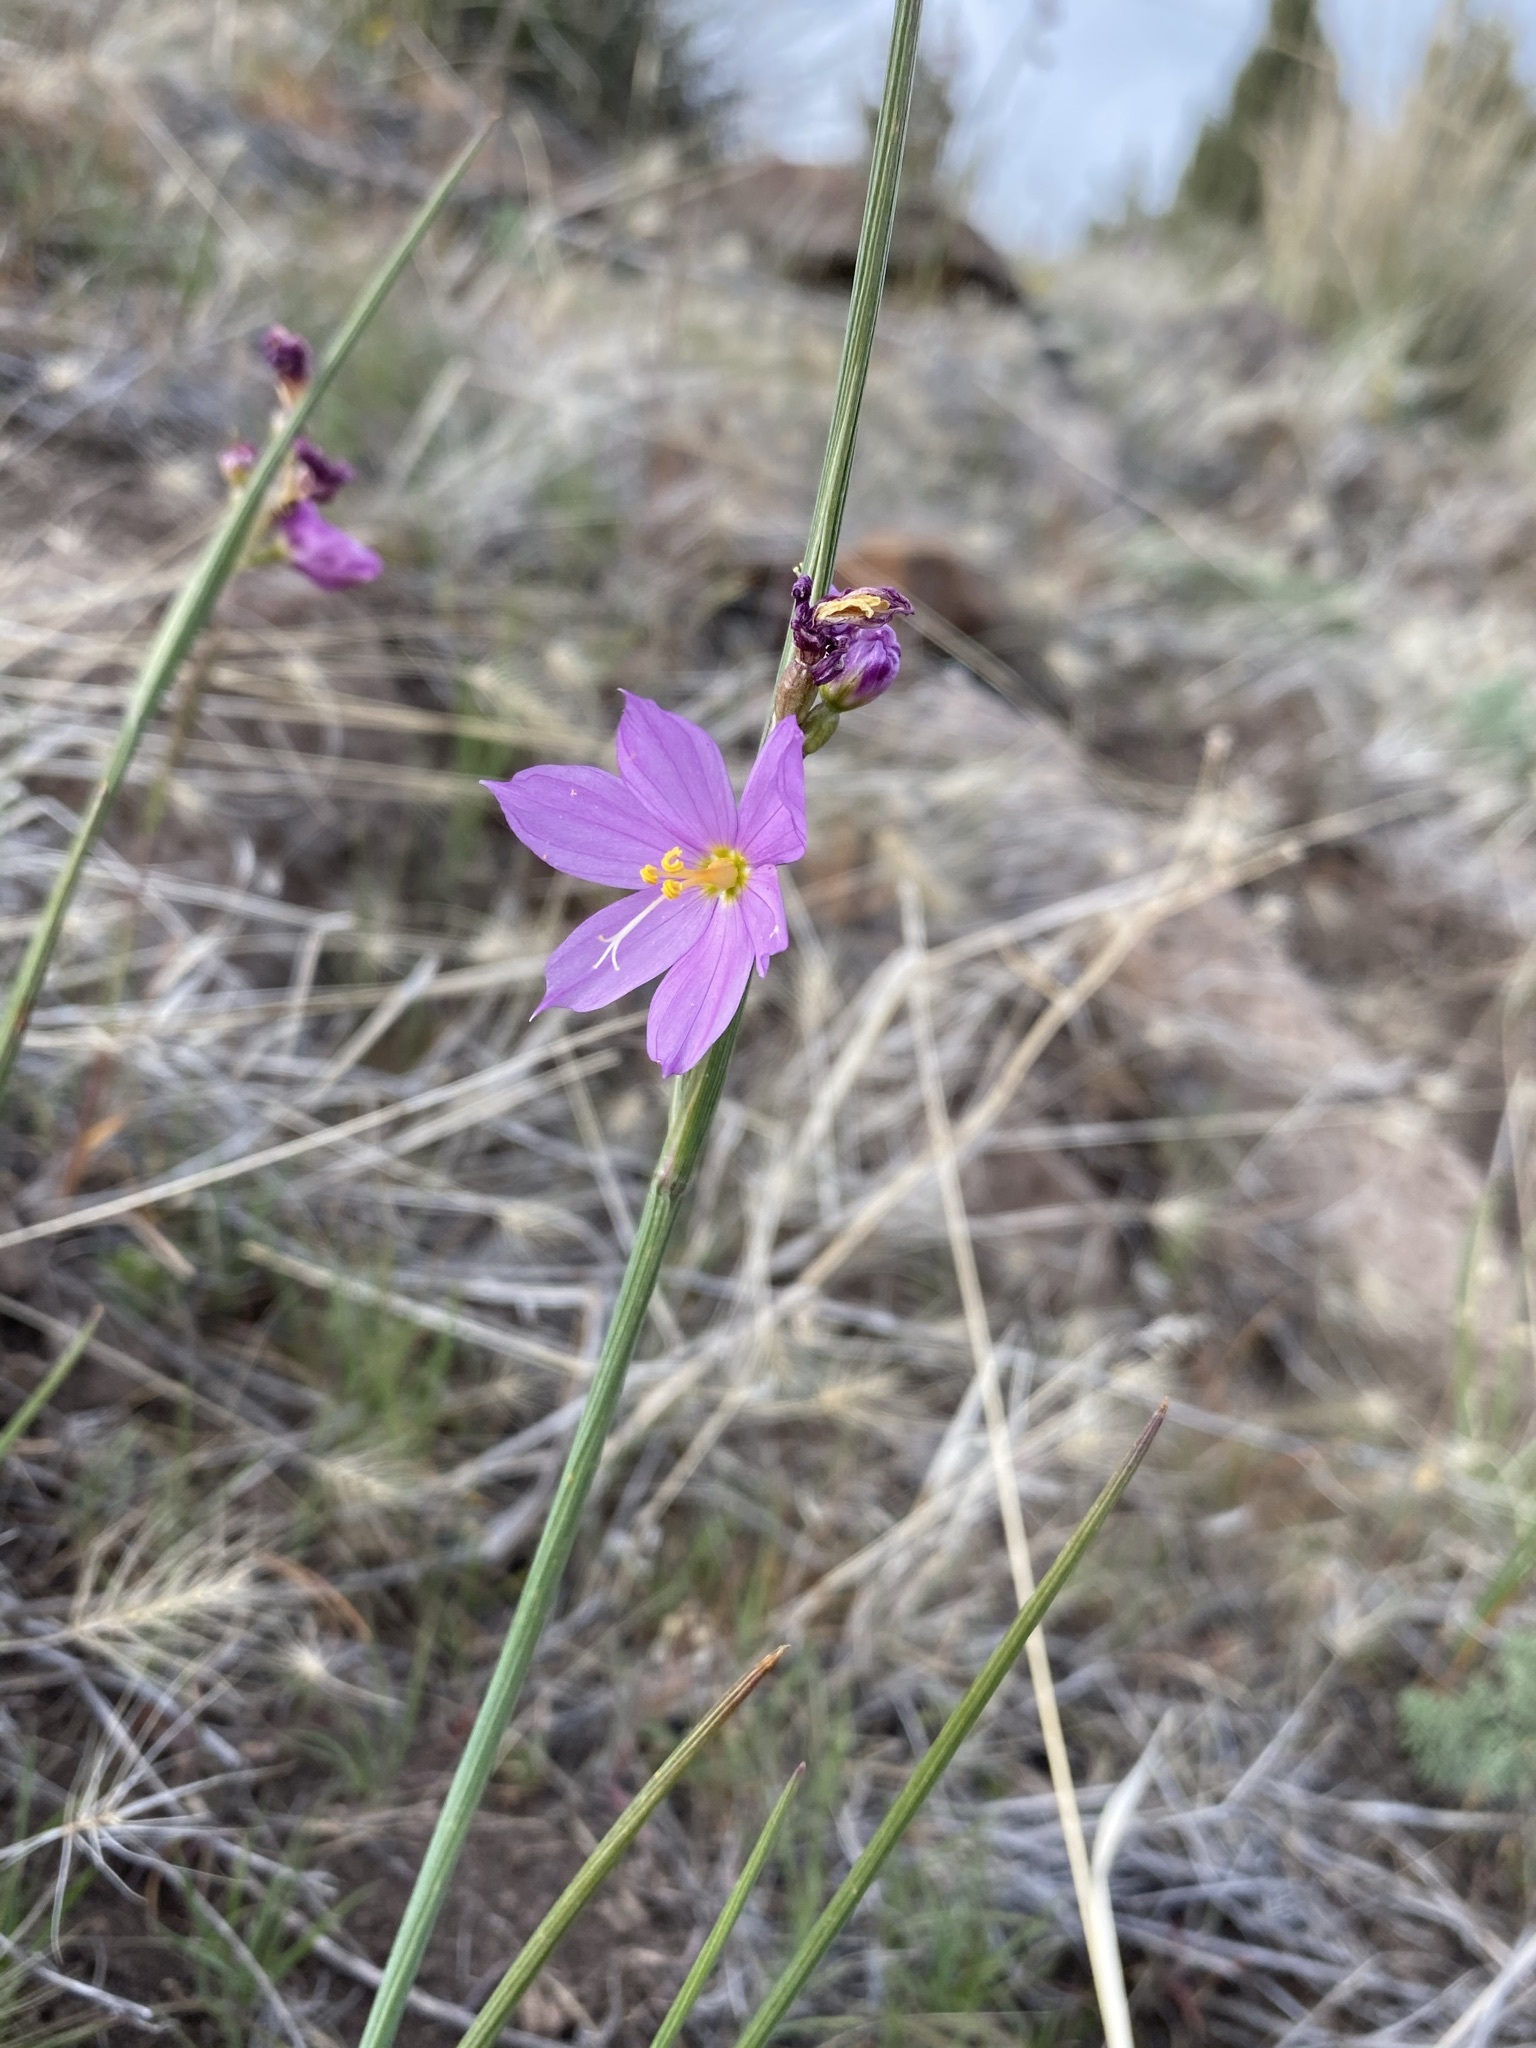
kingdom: Plantae
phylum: Tracheophyta
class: Liliopsida
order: Asparagales
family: Iridaceae
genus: Olsynium
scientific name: Olsynium douglasii
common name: Douglas' grasswidow
